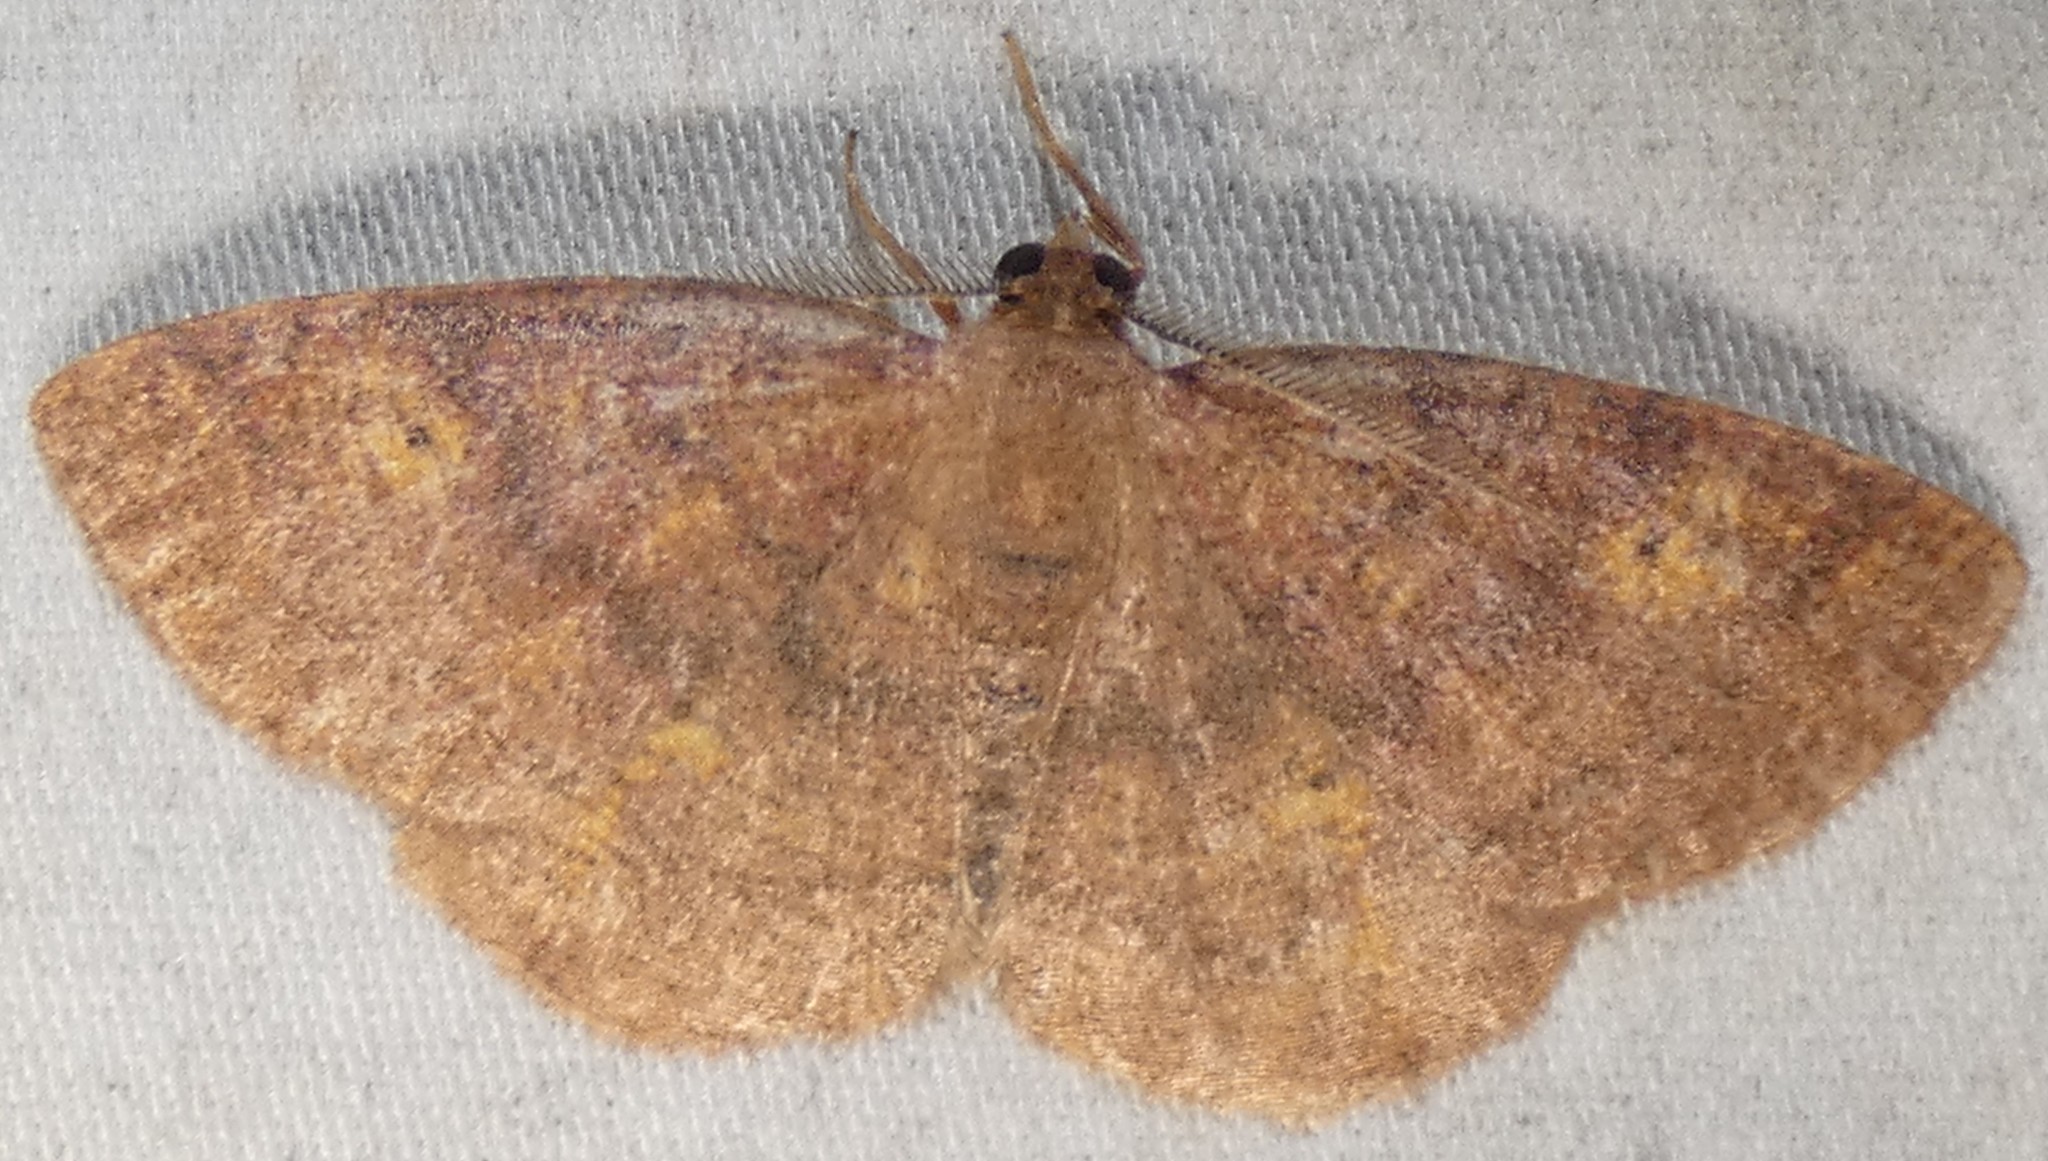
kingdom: Animalia
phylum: Arthropoda
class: Insecta
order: Lepidoptera
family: Geometridae
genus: Ilexia
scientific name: Ilexia intractata
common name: Black-dotted ruddy moth
